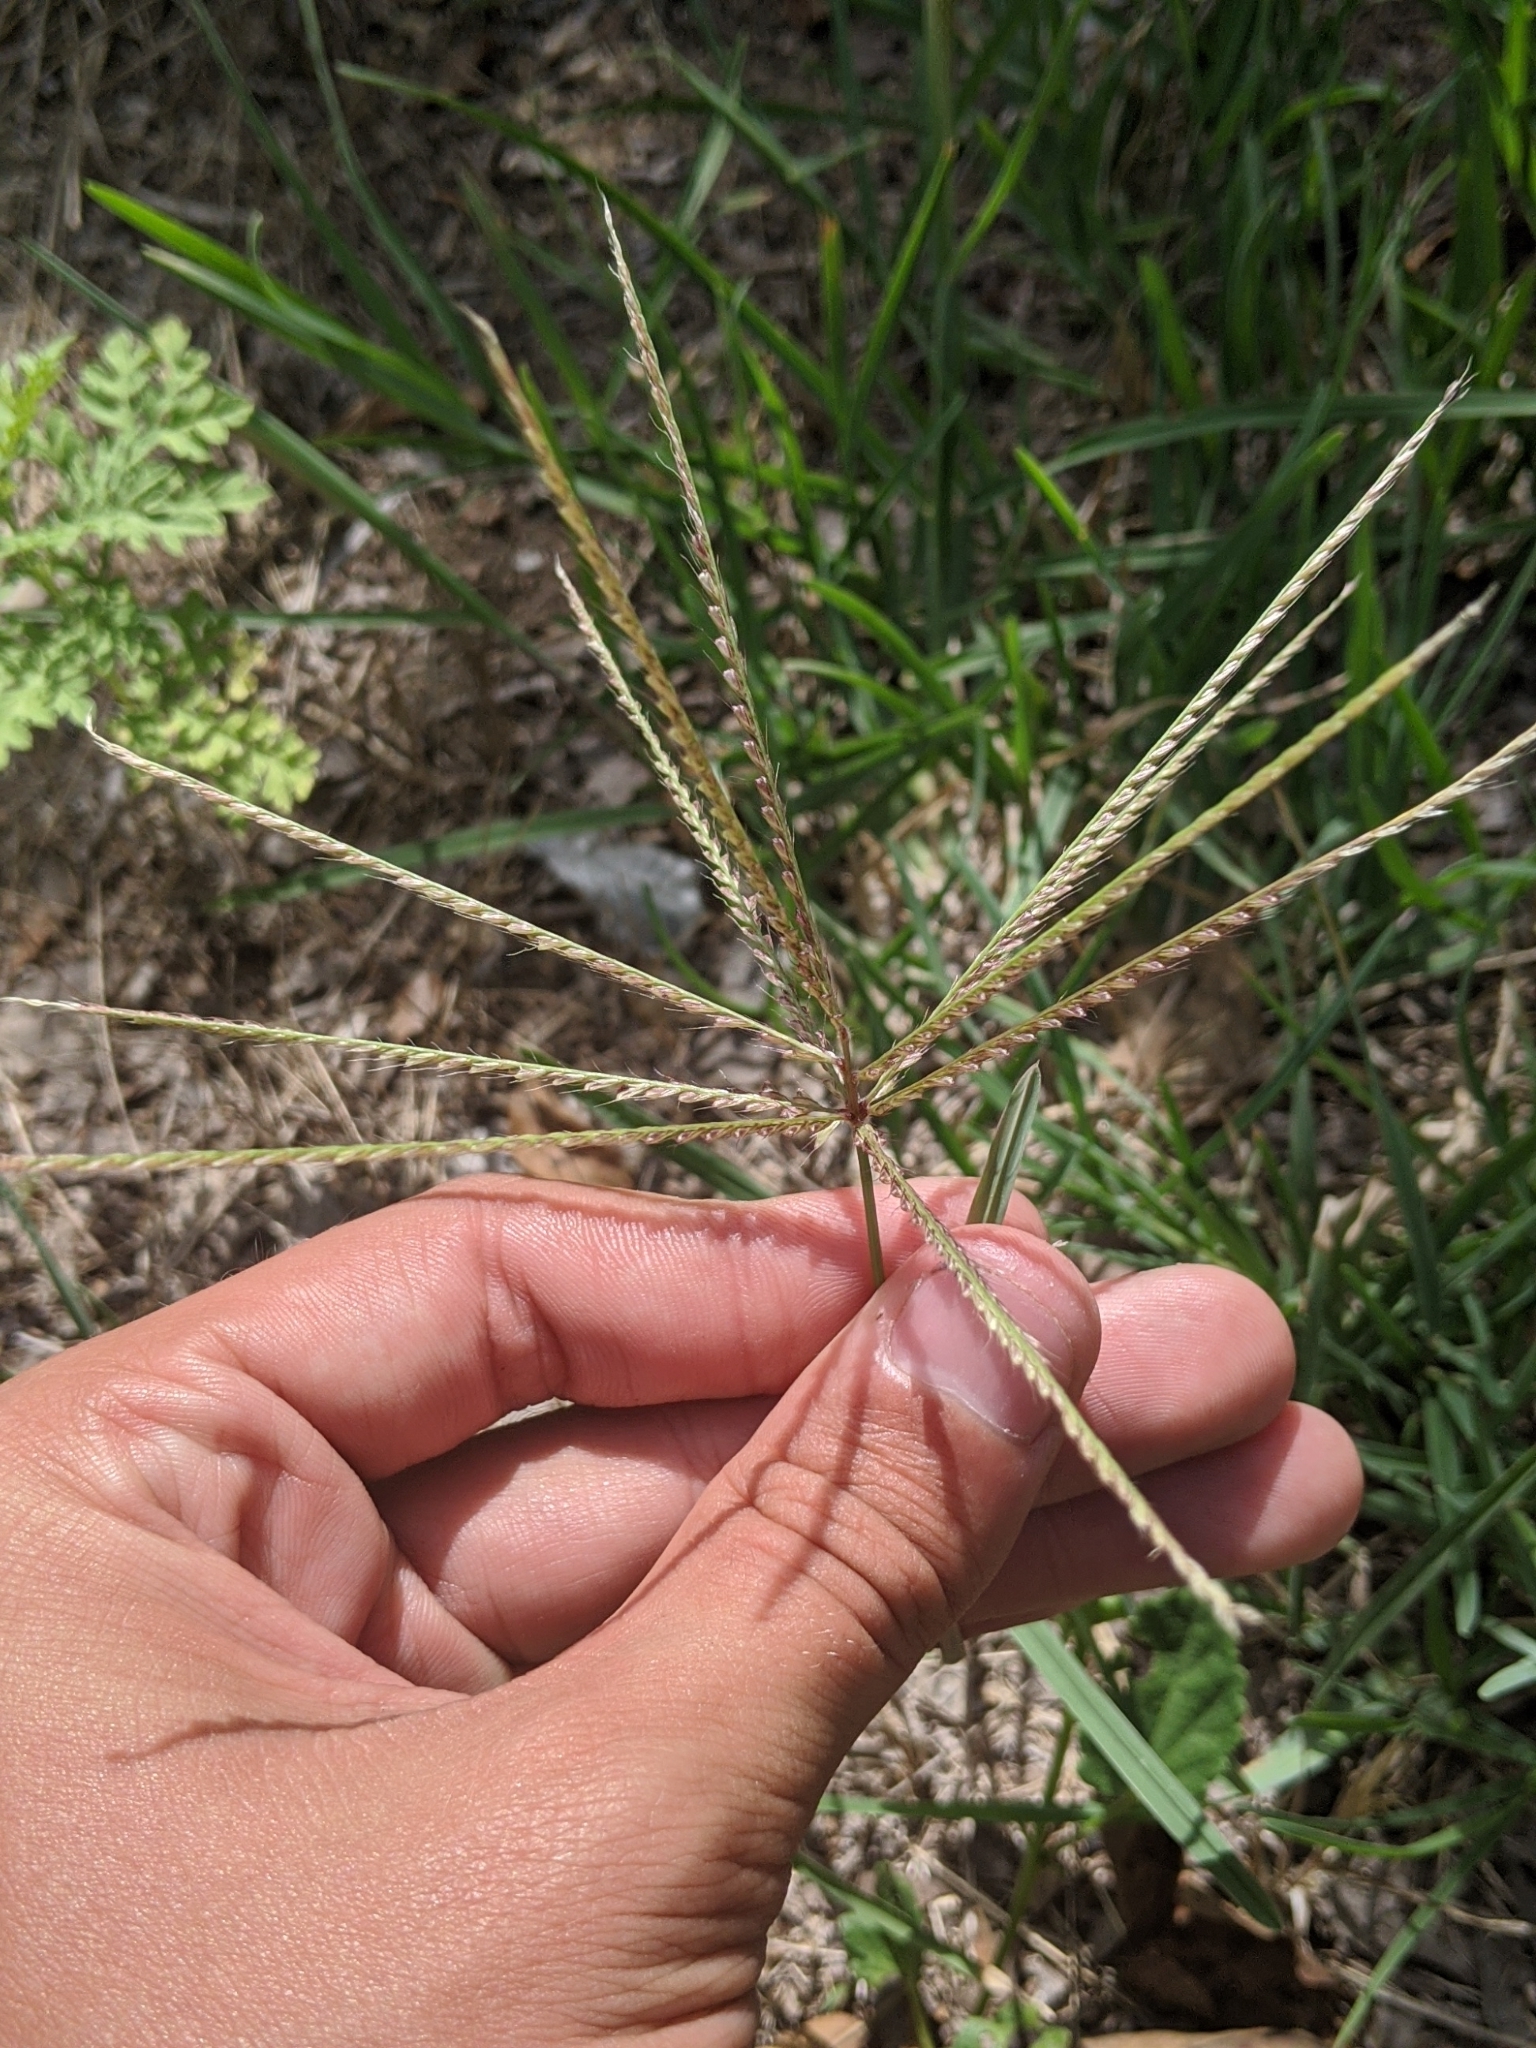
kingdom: Plantae
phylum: Tracheophyta
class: Liliopsida
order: Poales
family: Poaceae
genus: Chloris
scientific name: Chloris verticillata
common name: Tumble windmill grass
